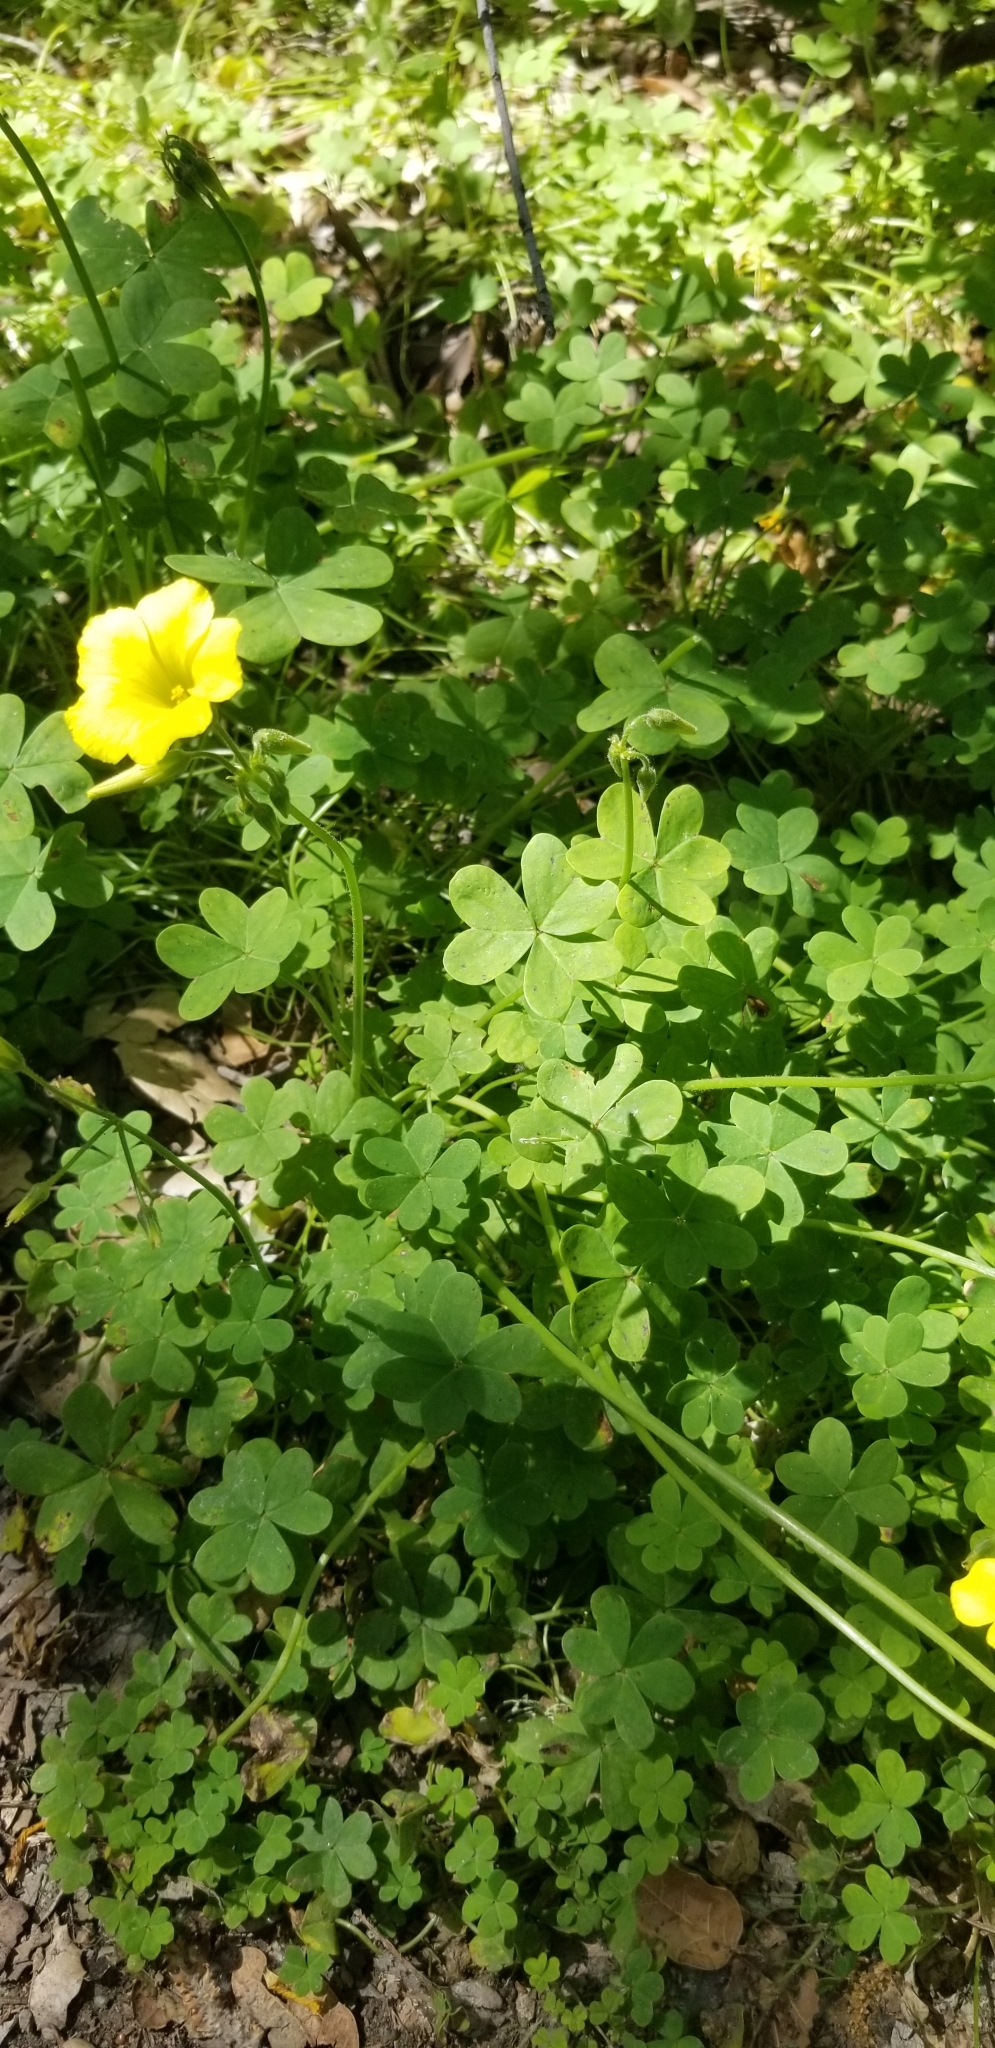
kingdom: Plantae
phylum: Tracheophyta
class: Magnoliopsida
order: Oxalidales
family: Oxalidaceae
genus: Oxalis
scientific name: Oxalis pes-caprae
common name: Bermuda-buttercup
